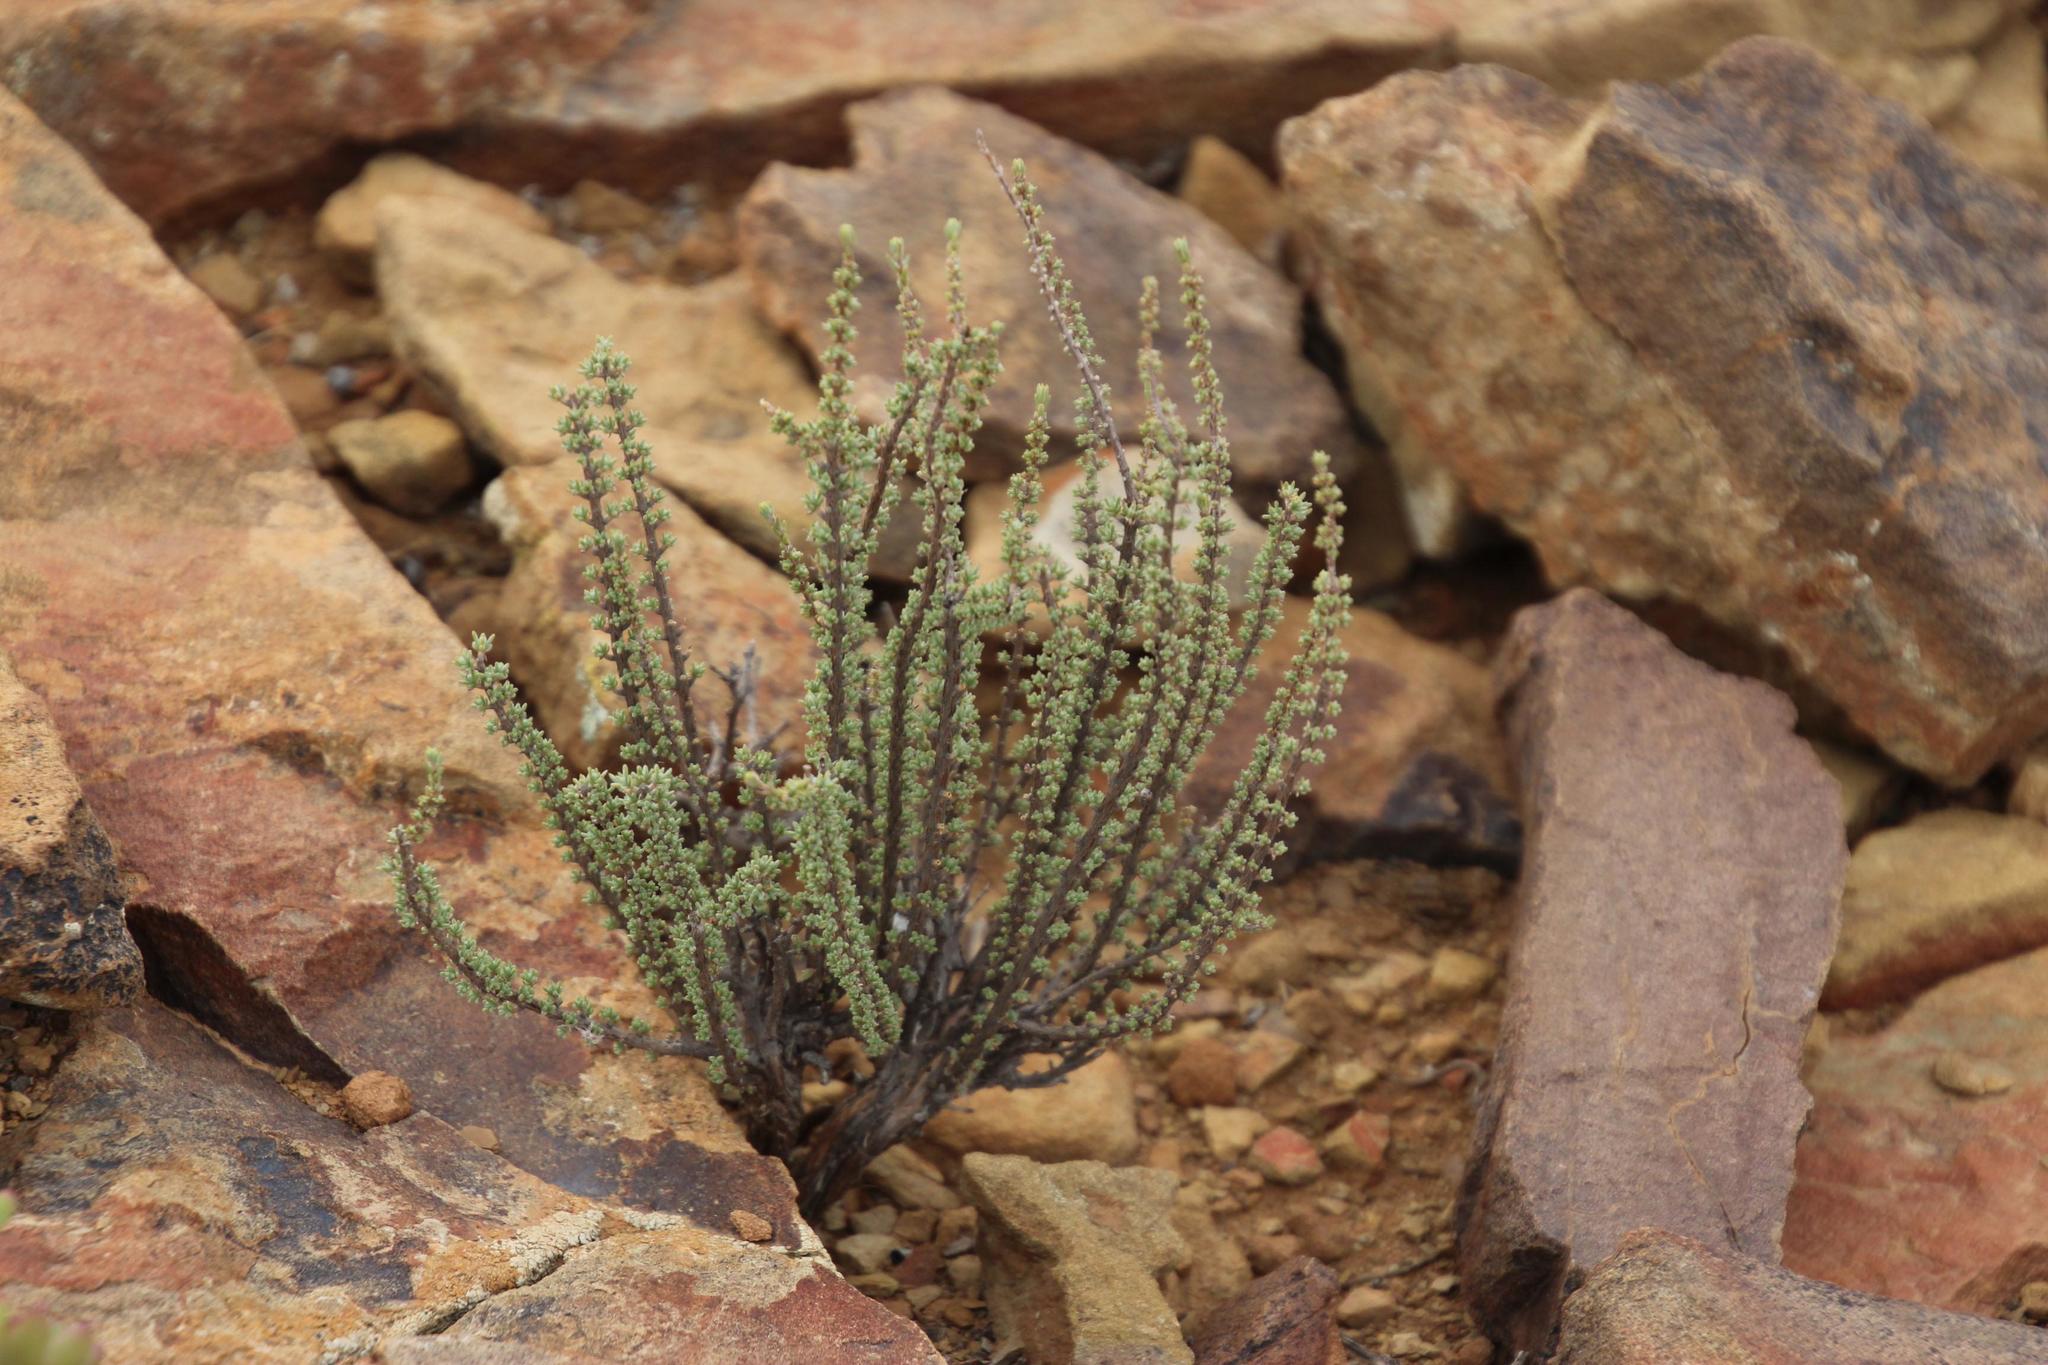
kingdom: Plantae
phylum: Tracheophyta
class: Magnoliopsida
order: Asterales
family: Asteraceae
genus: Eriocephalus
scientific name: Eriocephalus ericoides
